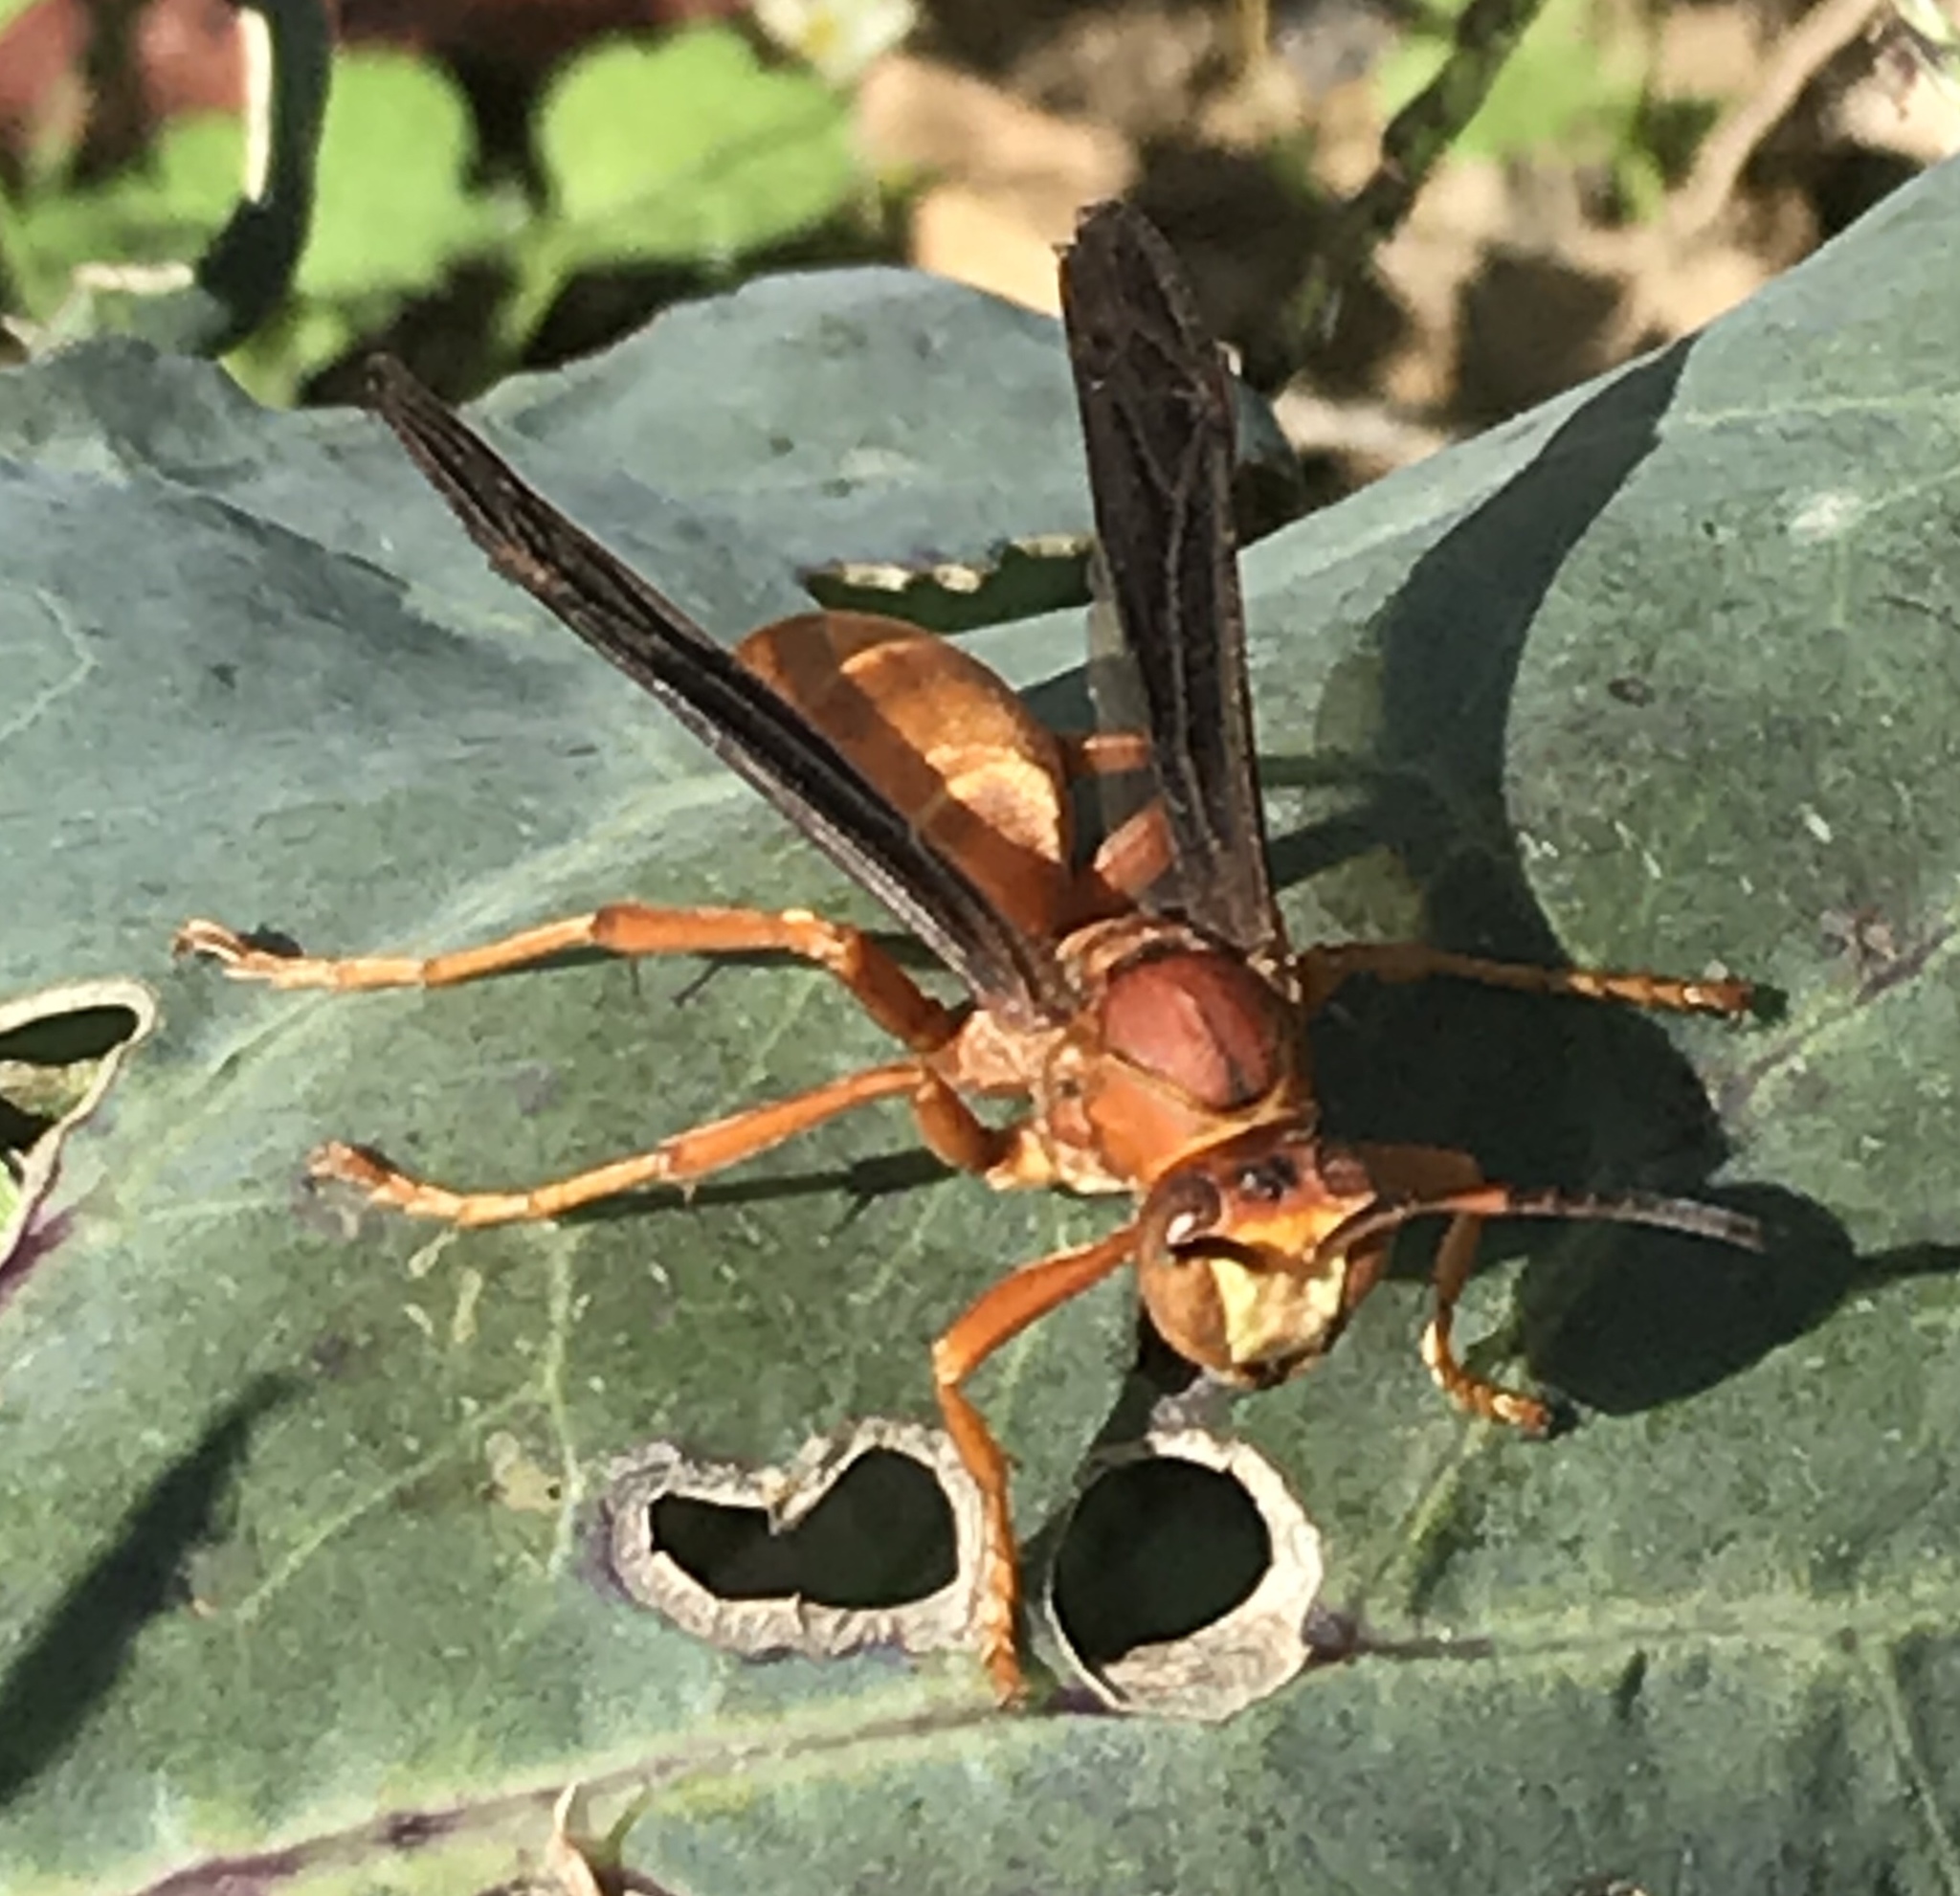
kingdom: Animalia
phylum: Arthropoda
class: Insecta
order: Hymenoptera
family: Eumenidae
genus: Polistes
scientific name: Polistes carolina
